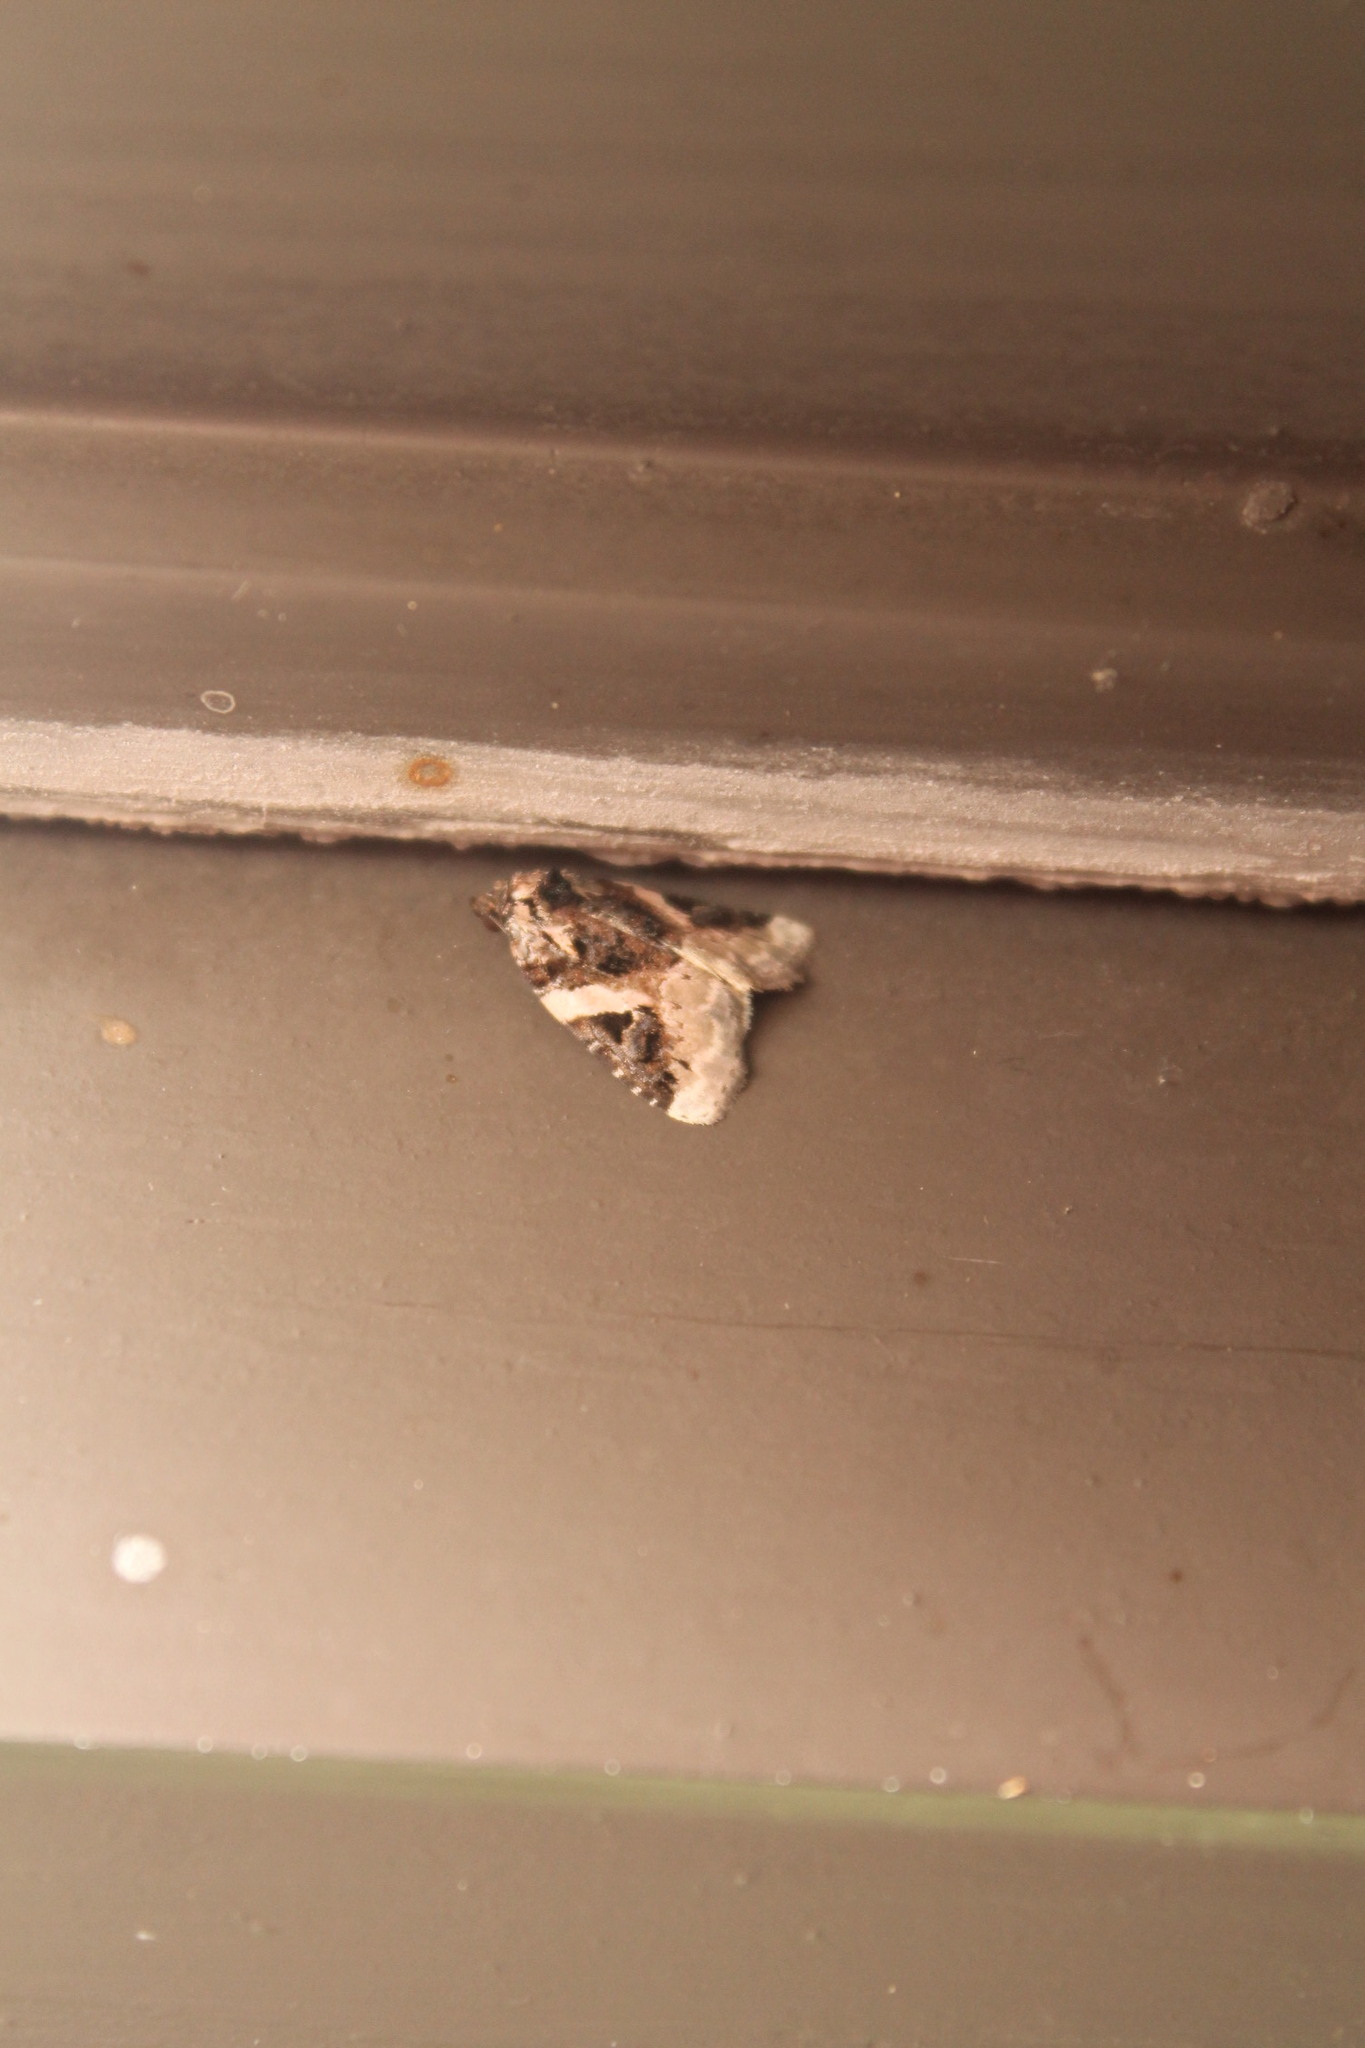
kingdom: Animalia
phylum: Arthropoda
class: Insecta
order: Lepidoptera
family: Noctuidae
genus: Pseudeustrotia
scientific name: Pseudeustrotia carneola
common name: Pink-barred lithacodia moth
